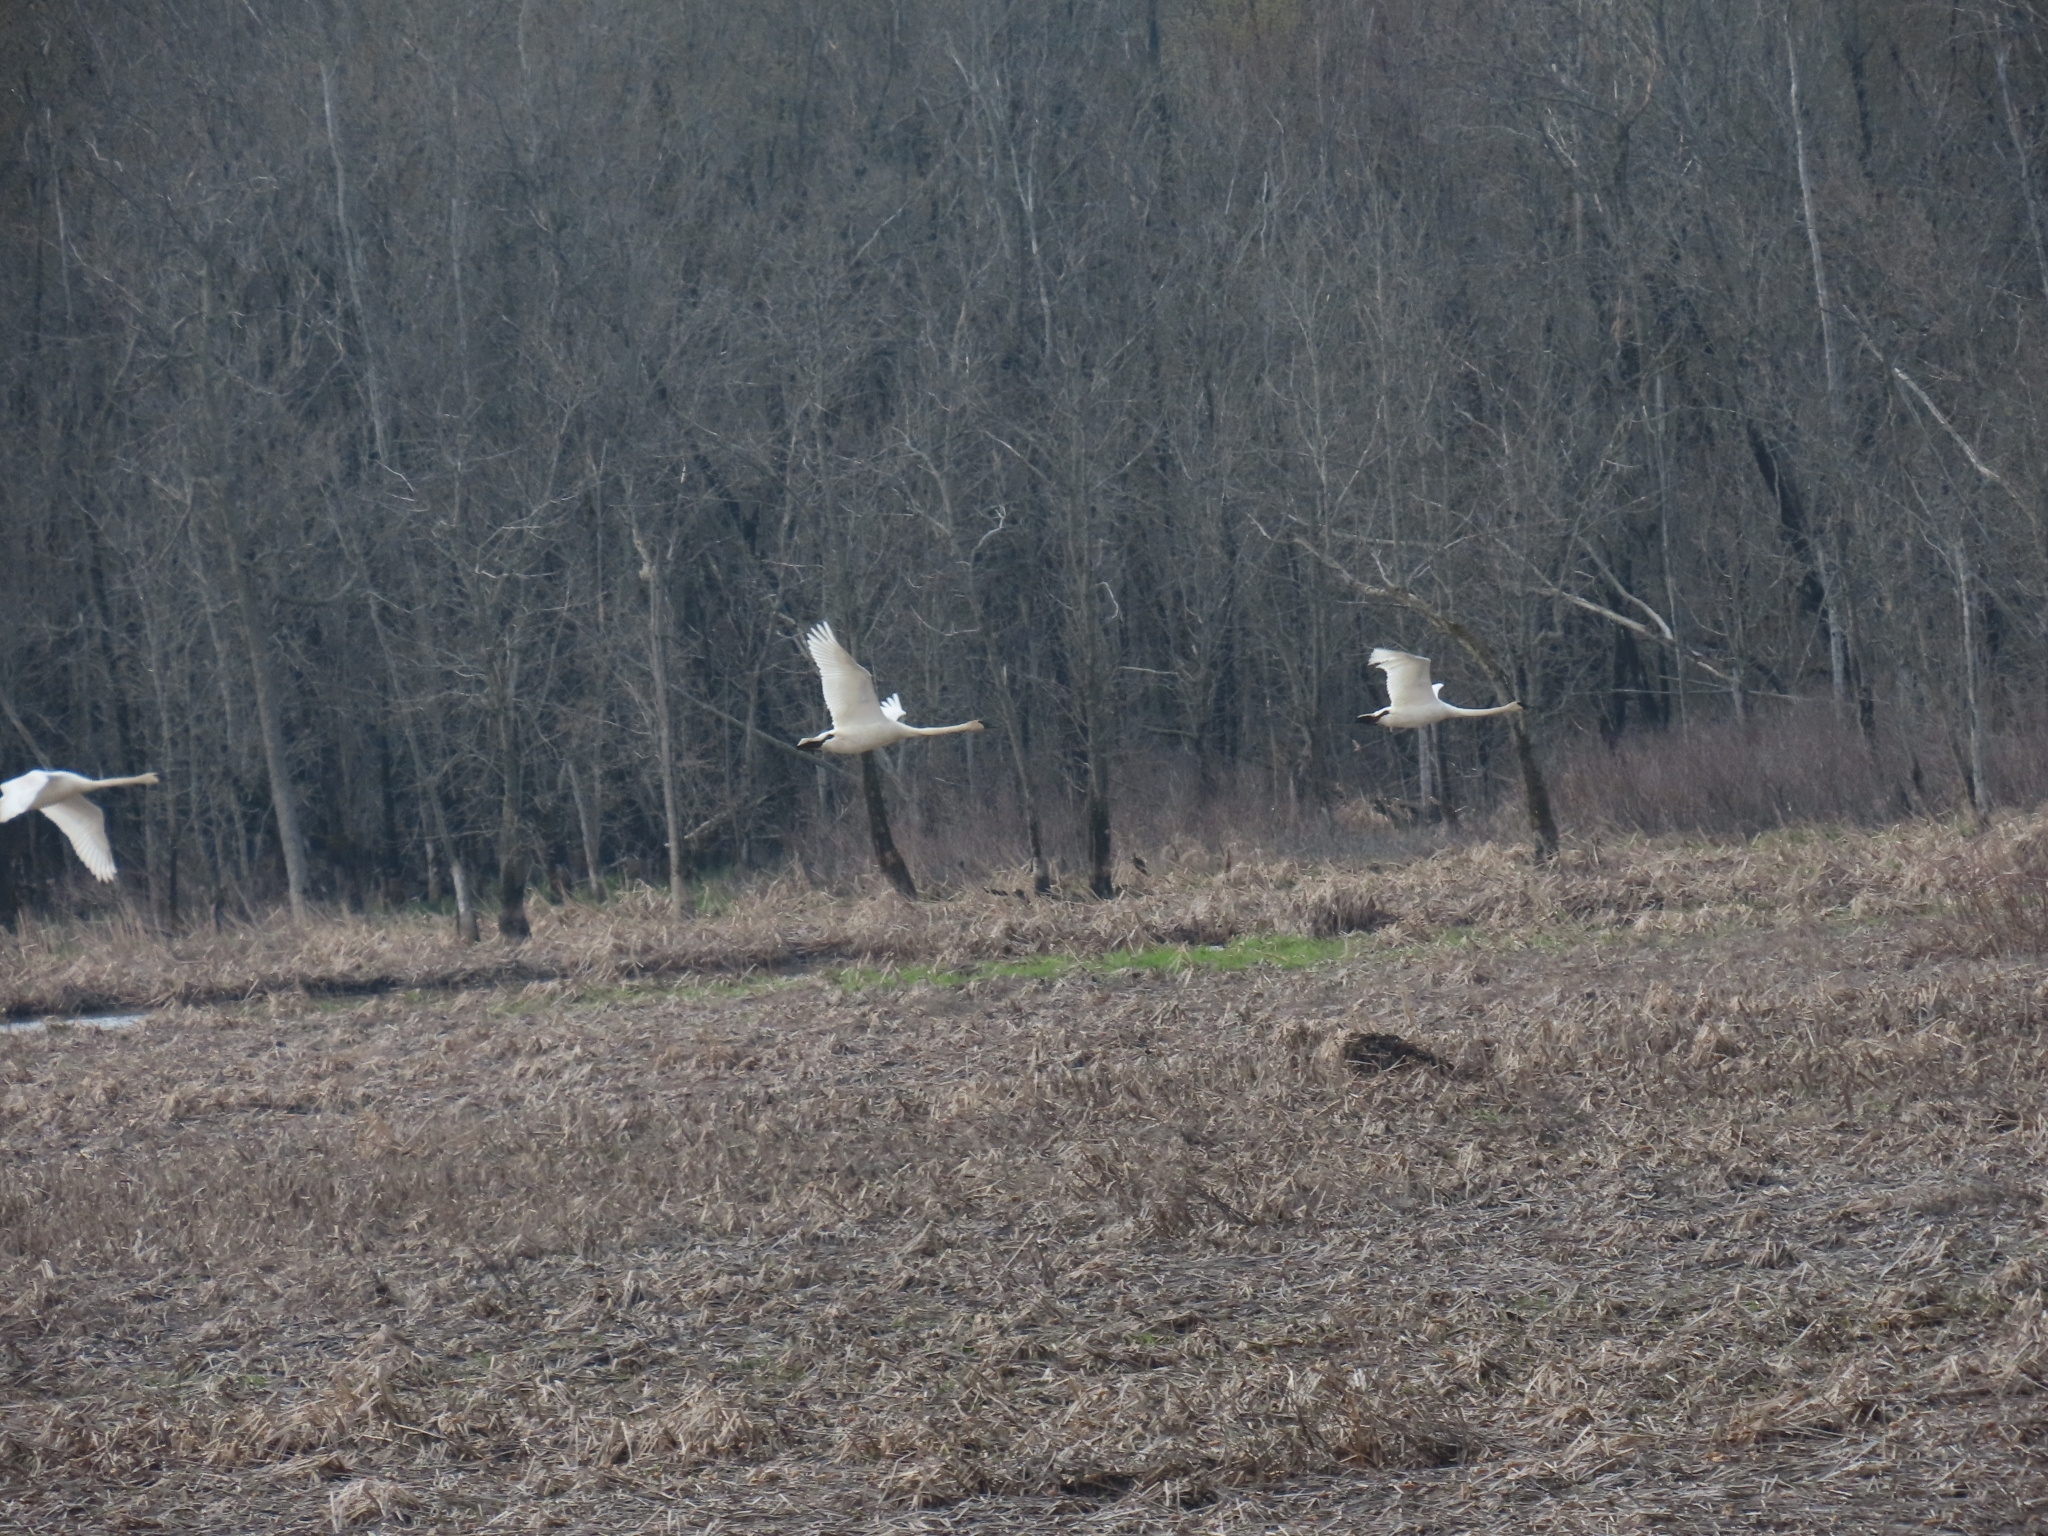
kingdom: Animalia
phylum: Chordata
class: Aves
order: Anseriformes
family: Anatidae
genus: Cygnus
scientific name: Cygnus buccinator
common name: Trumpeter swan
